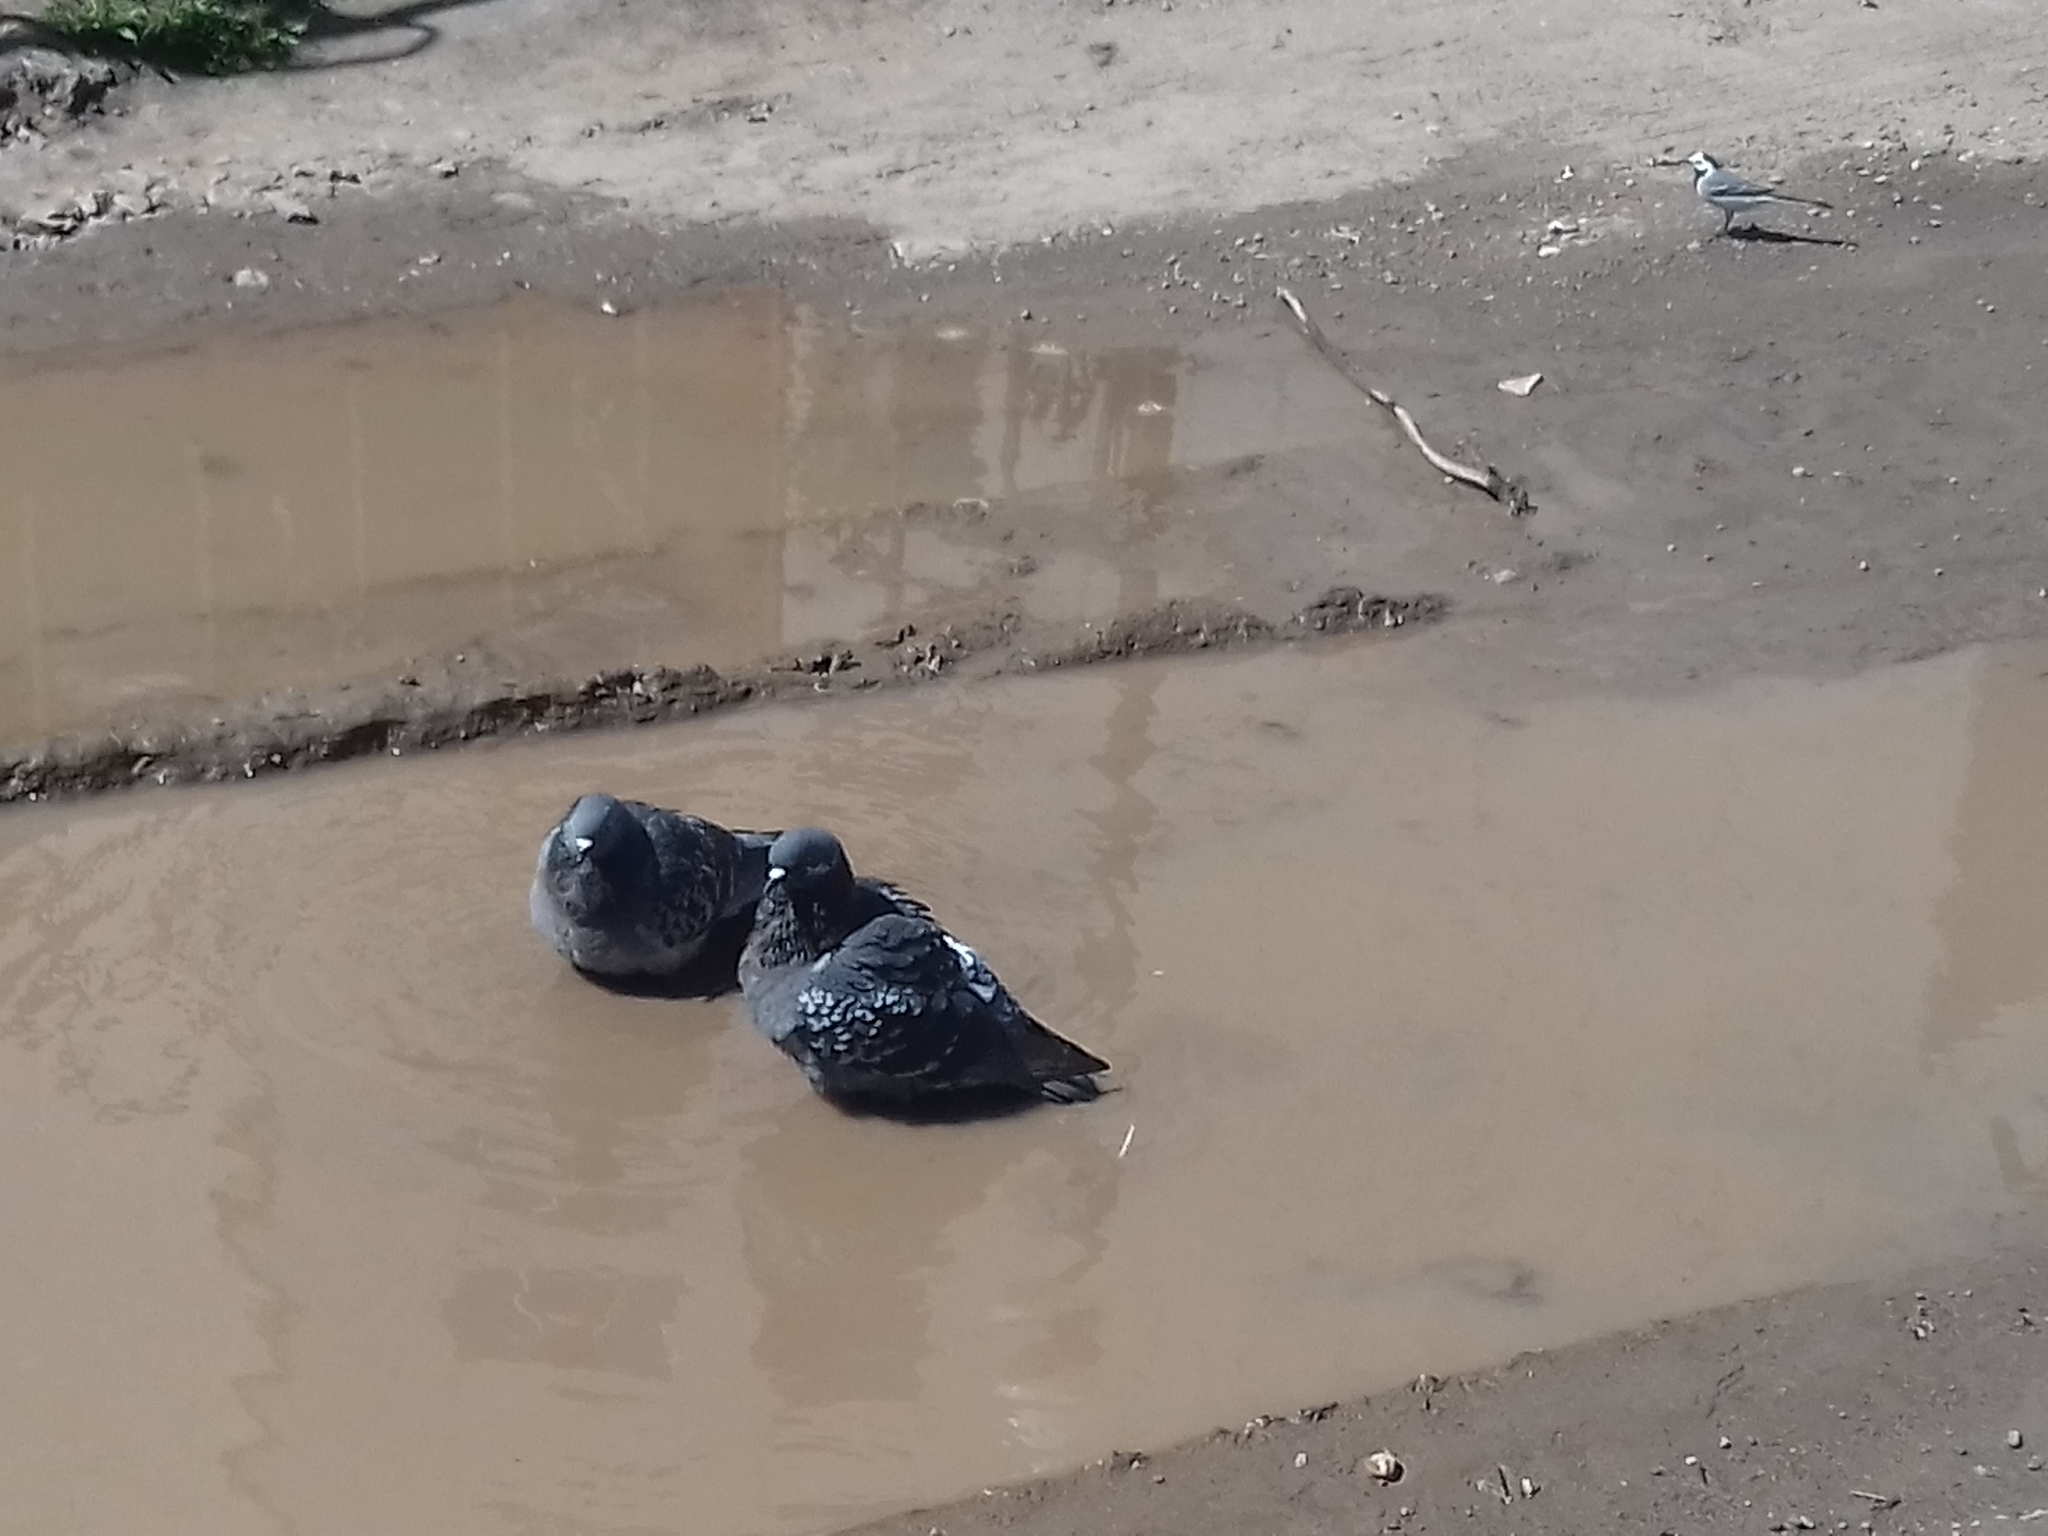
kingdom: Animalia
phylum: Chordata
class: Aves
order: Columbiformes
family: Columbidae
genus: Columba
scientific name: Columba livia
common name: Rock pigeon
